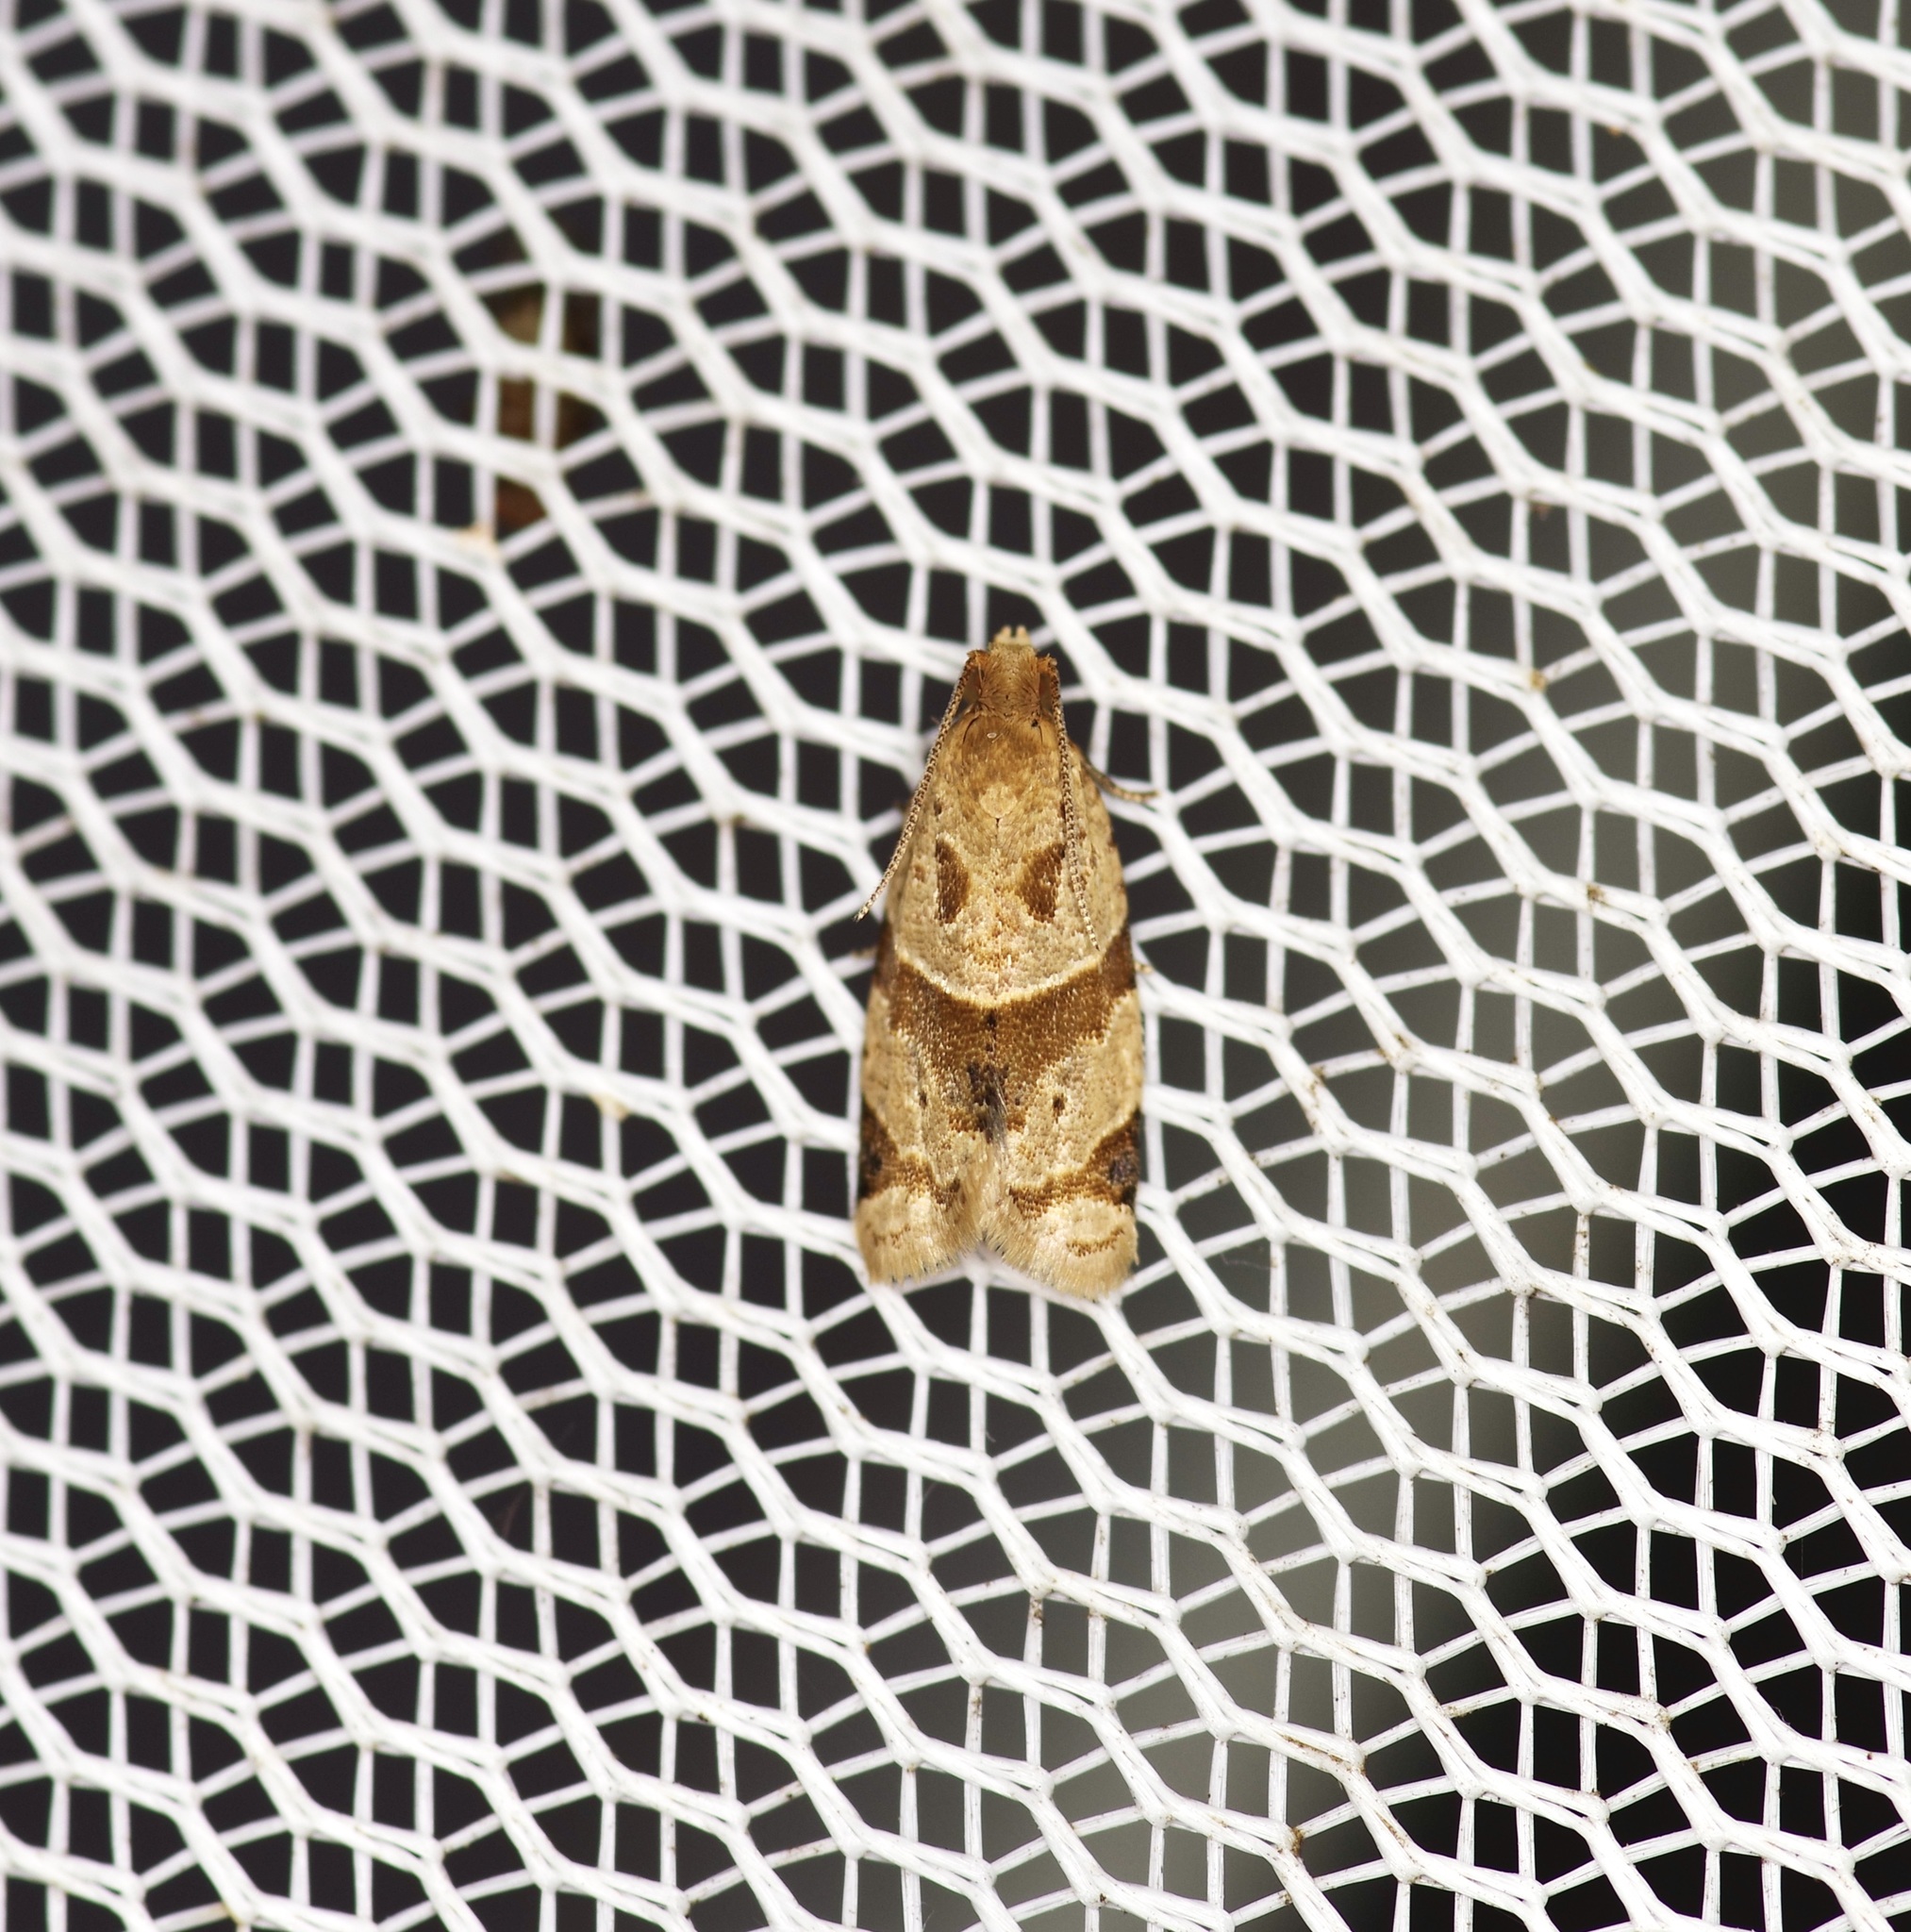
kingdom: Animalia
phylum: Arthropoda
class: Insecta
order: Lepidoptera
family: Tortricidae
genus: Clepsis
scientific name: Clepsis peritana
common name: Garden tortrix
